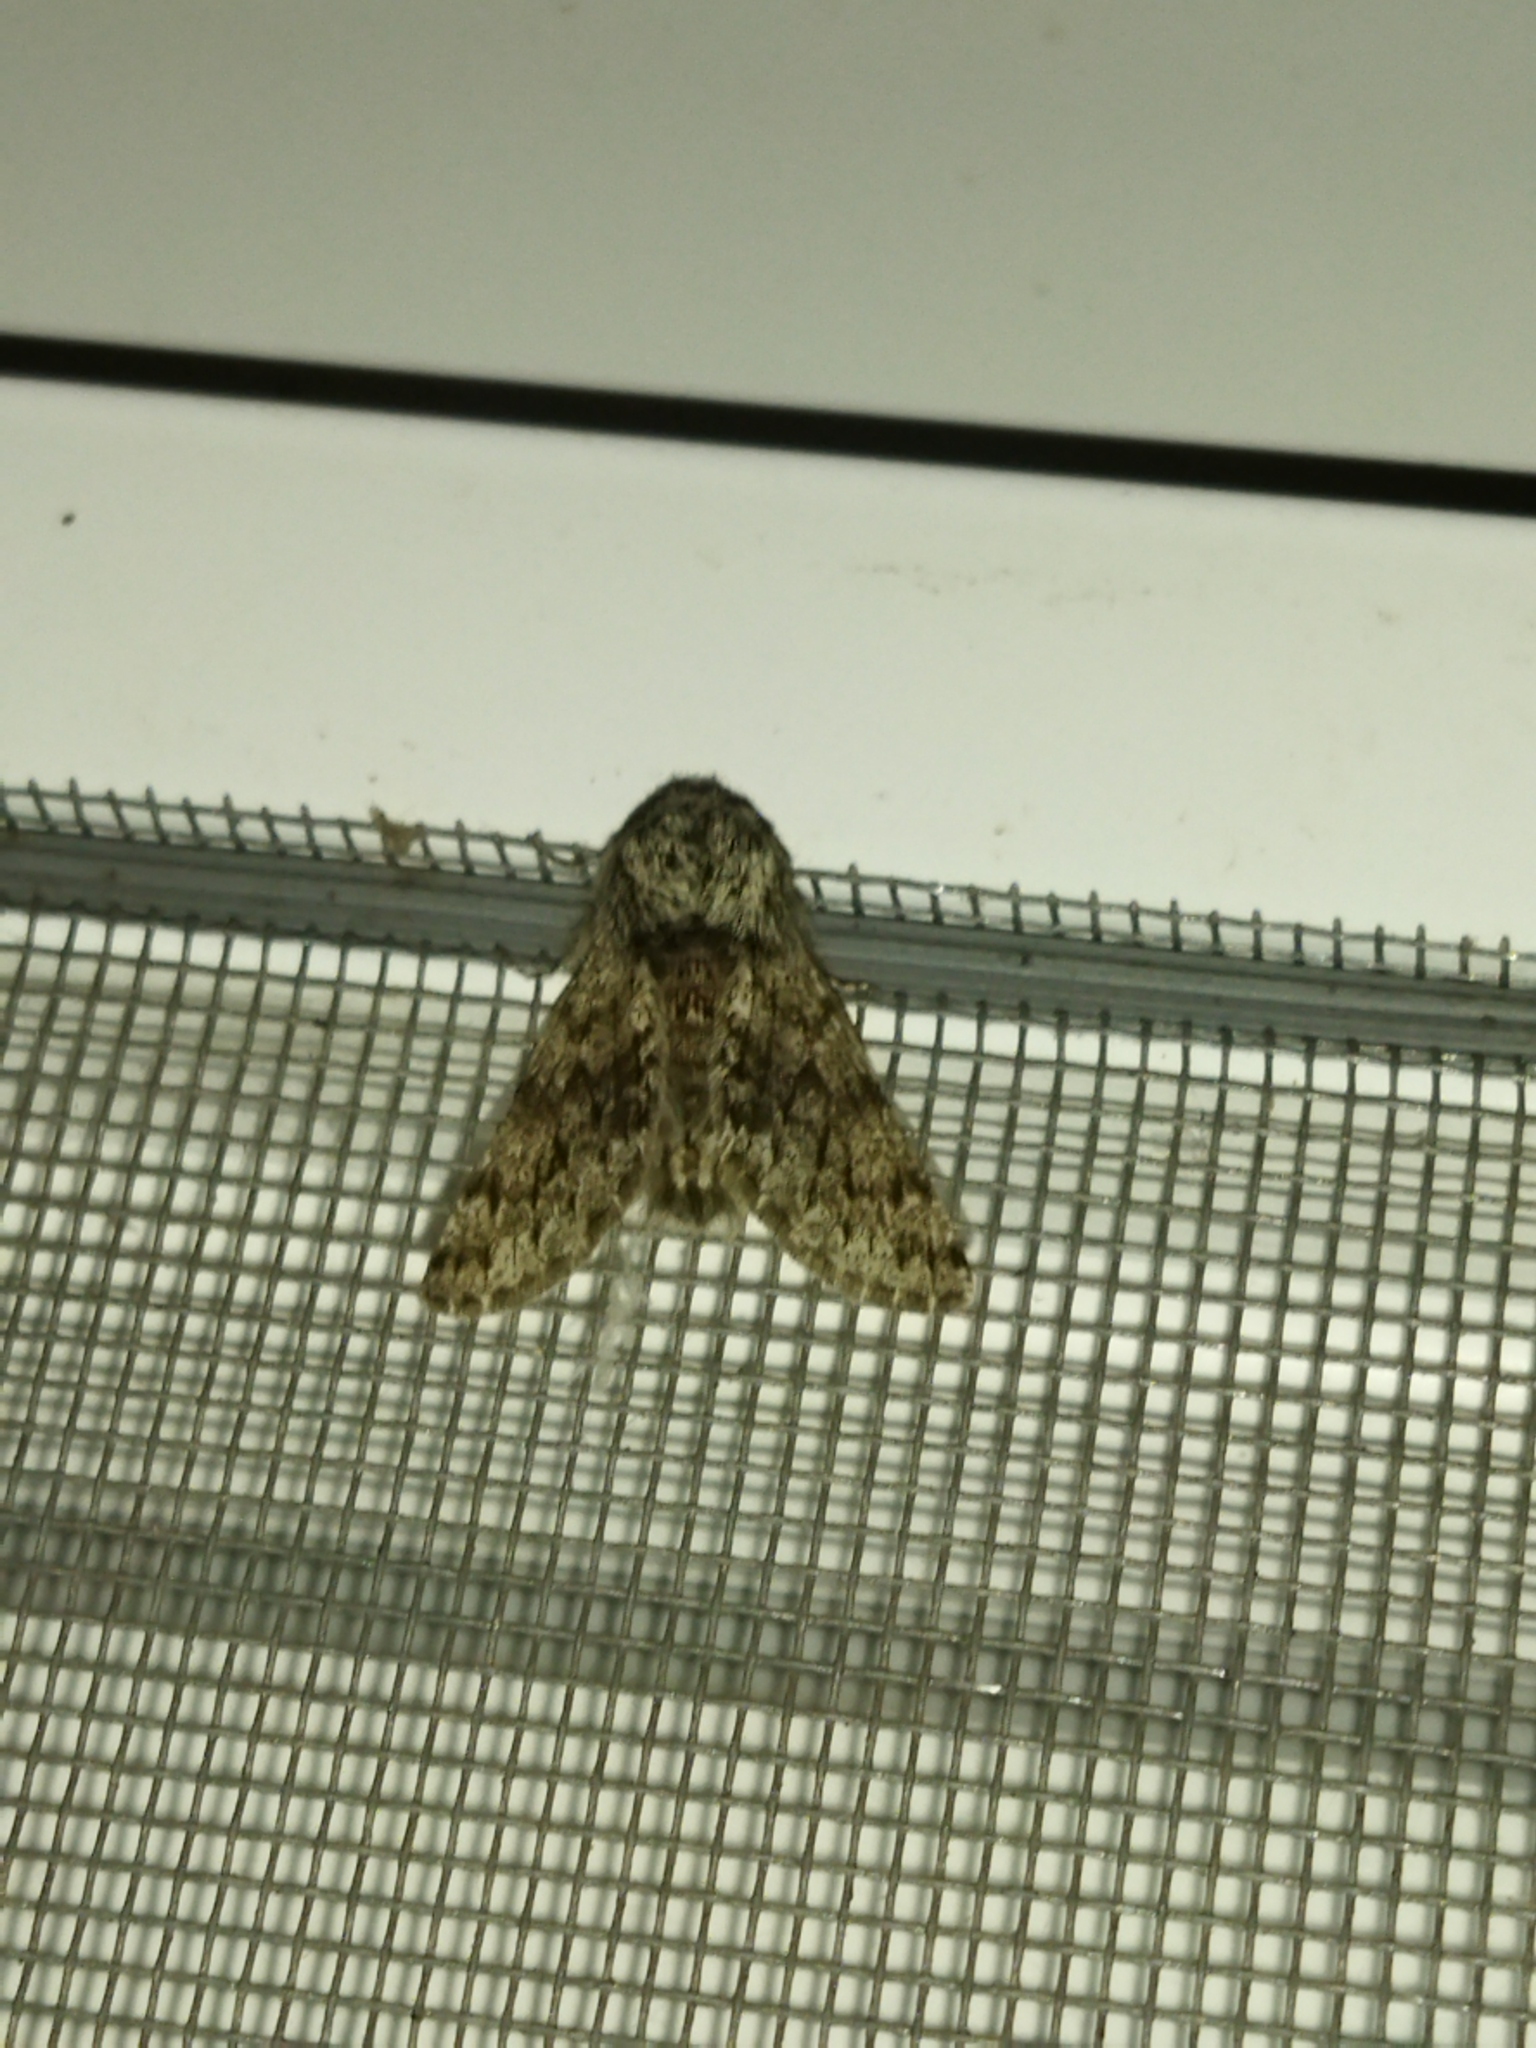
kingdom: Animalia
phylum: Arthropoda
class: Insecta
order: Lepidoptera
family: Geometridae
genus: Apocheima
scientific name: Apocheima hispidaria
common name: Small brindled beauty
